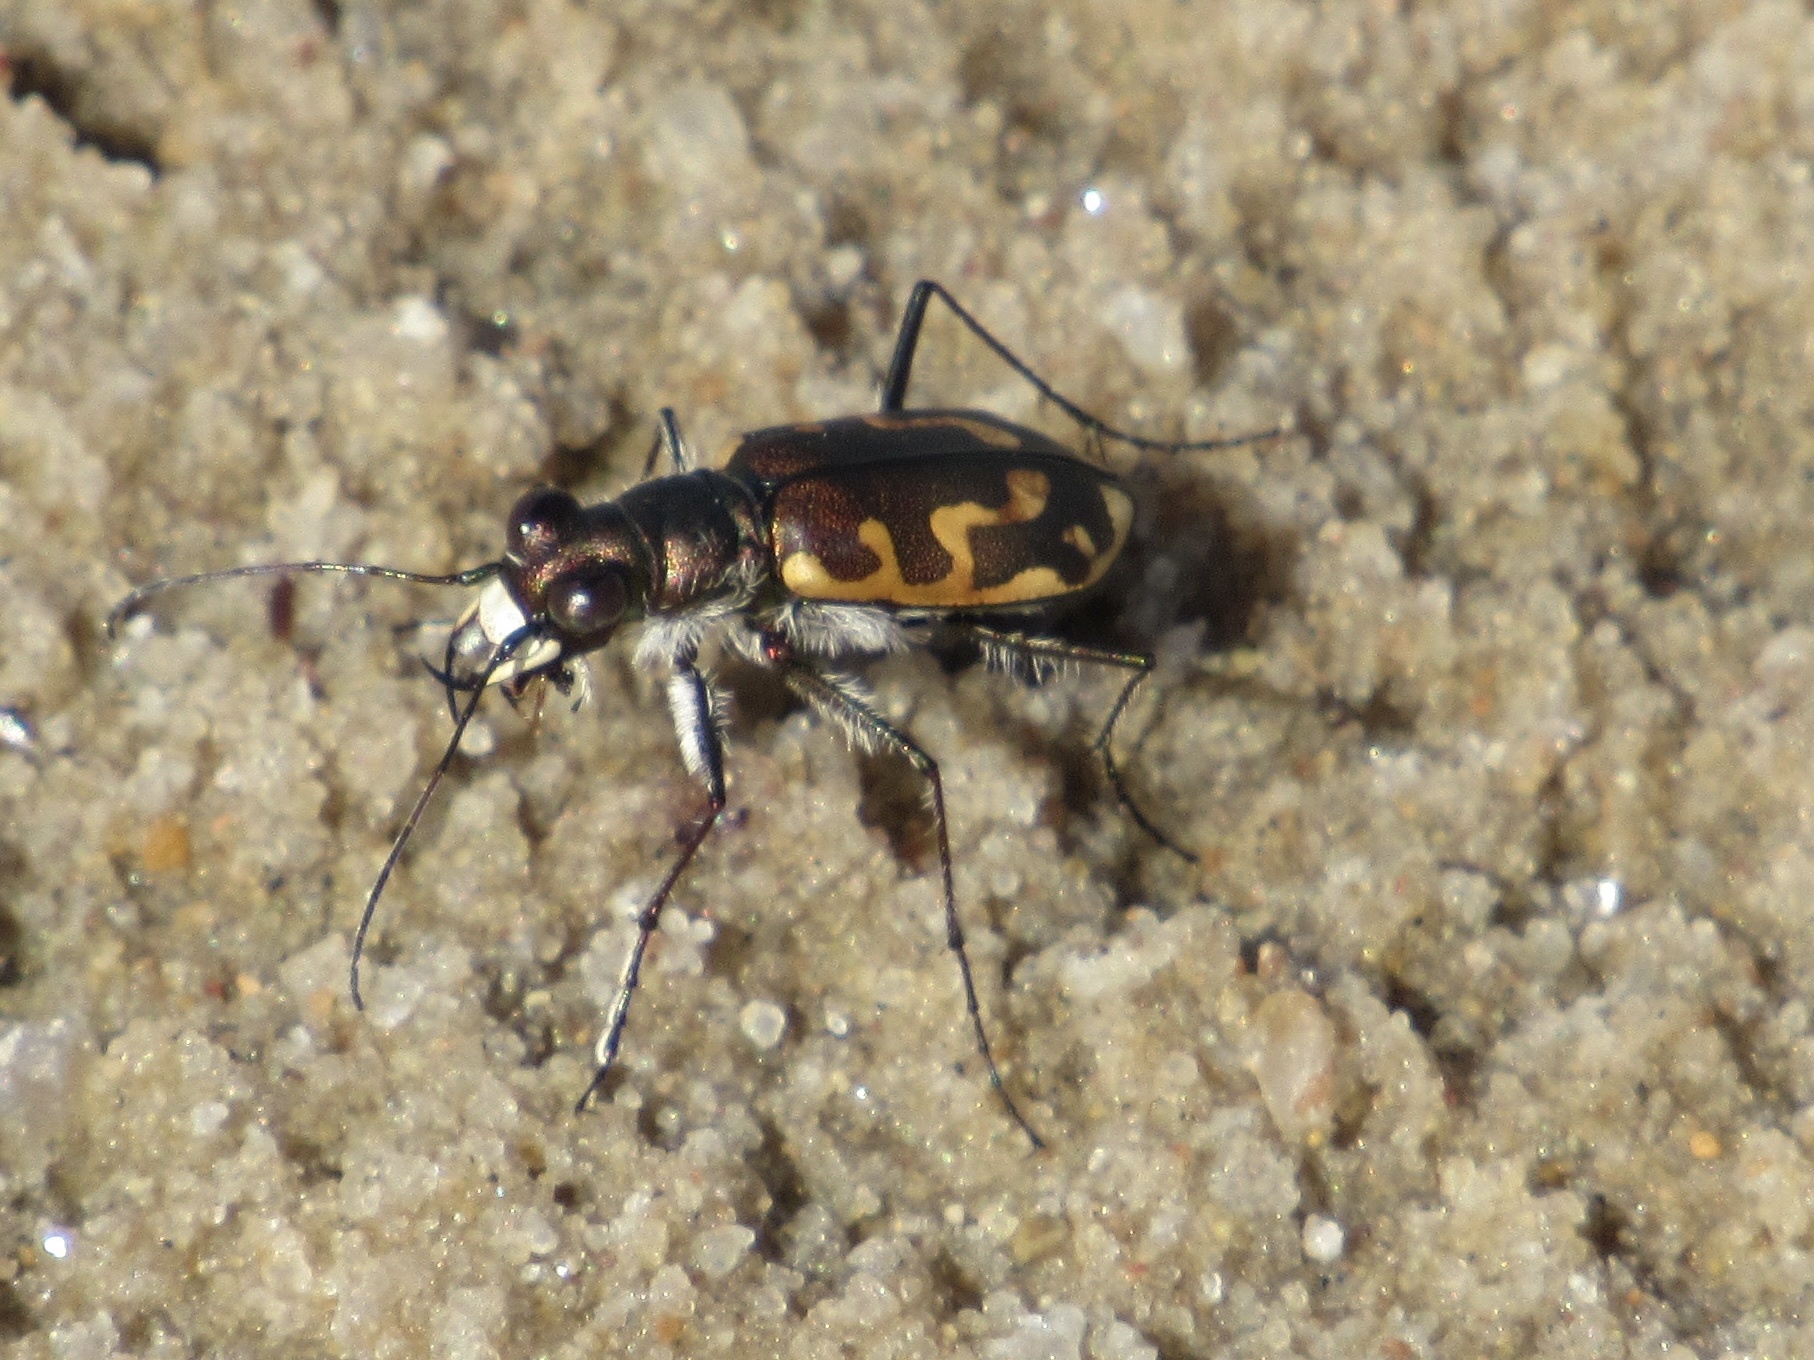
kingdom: Animalia
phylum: Arthropoda
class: Insecta
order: Coleoptera
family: Carabidae
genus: Cicindela
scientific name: Cicindela hirticollis
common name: Hairy-necked tiger beetle
